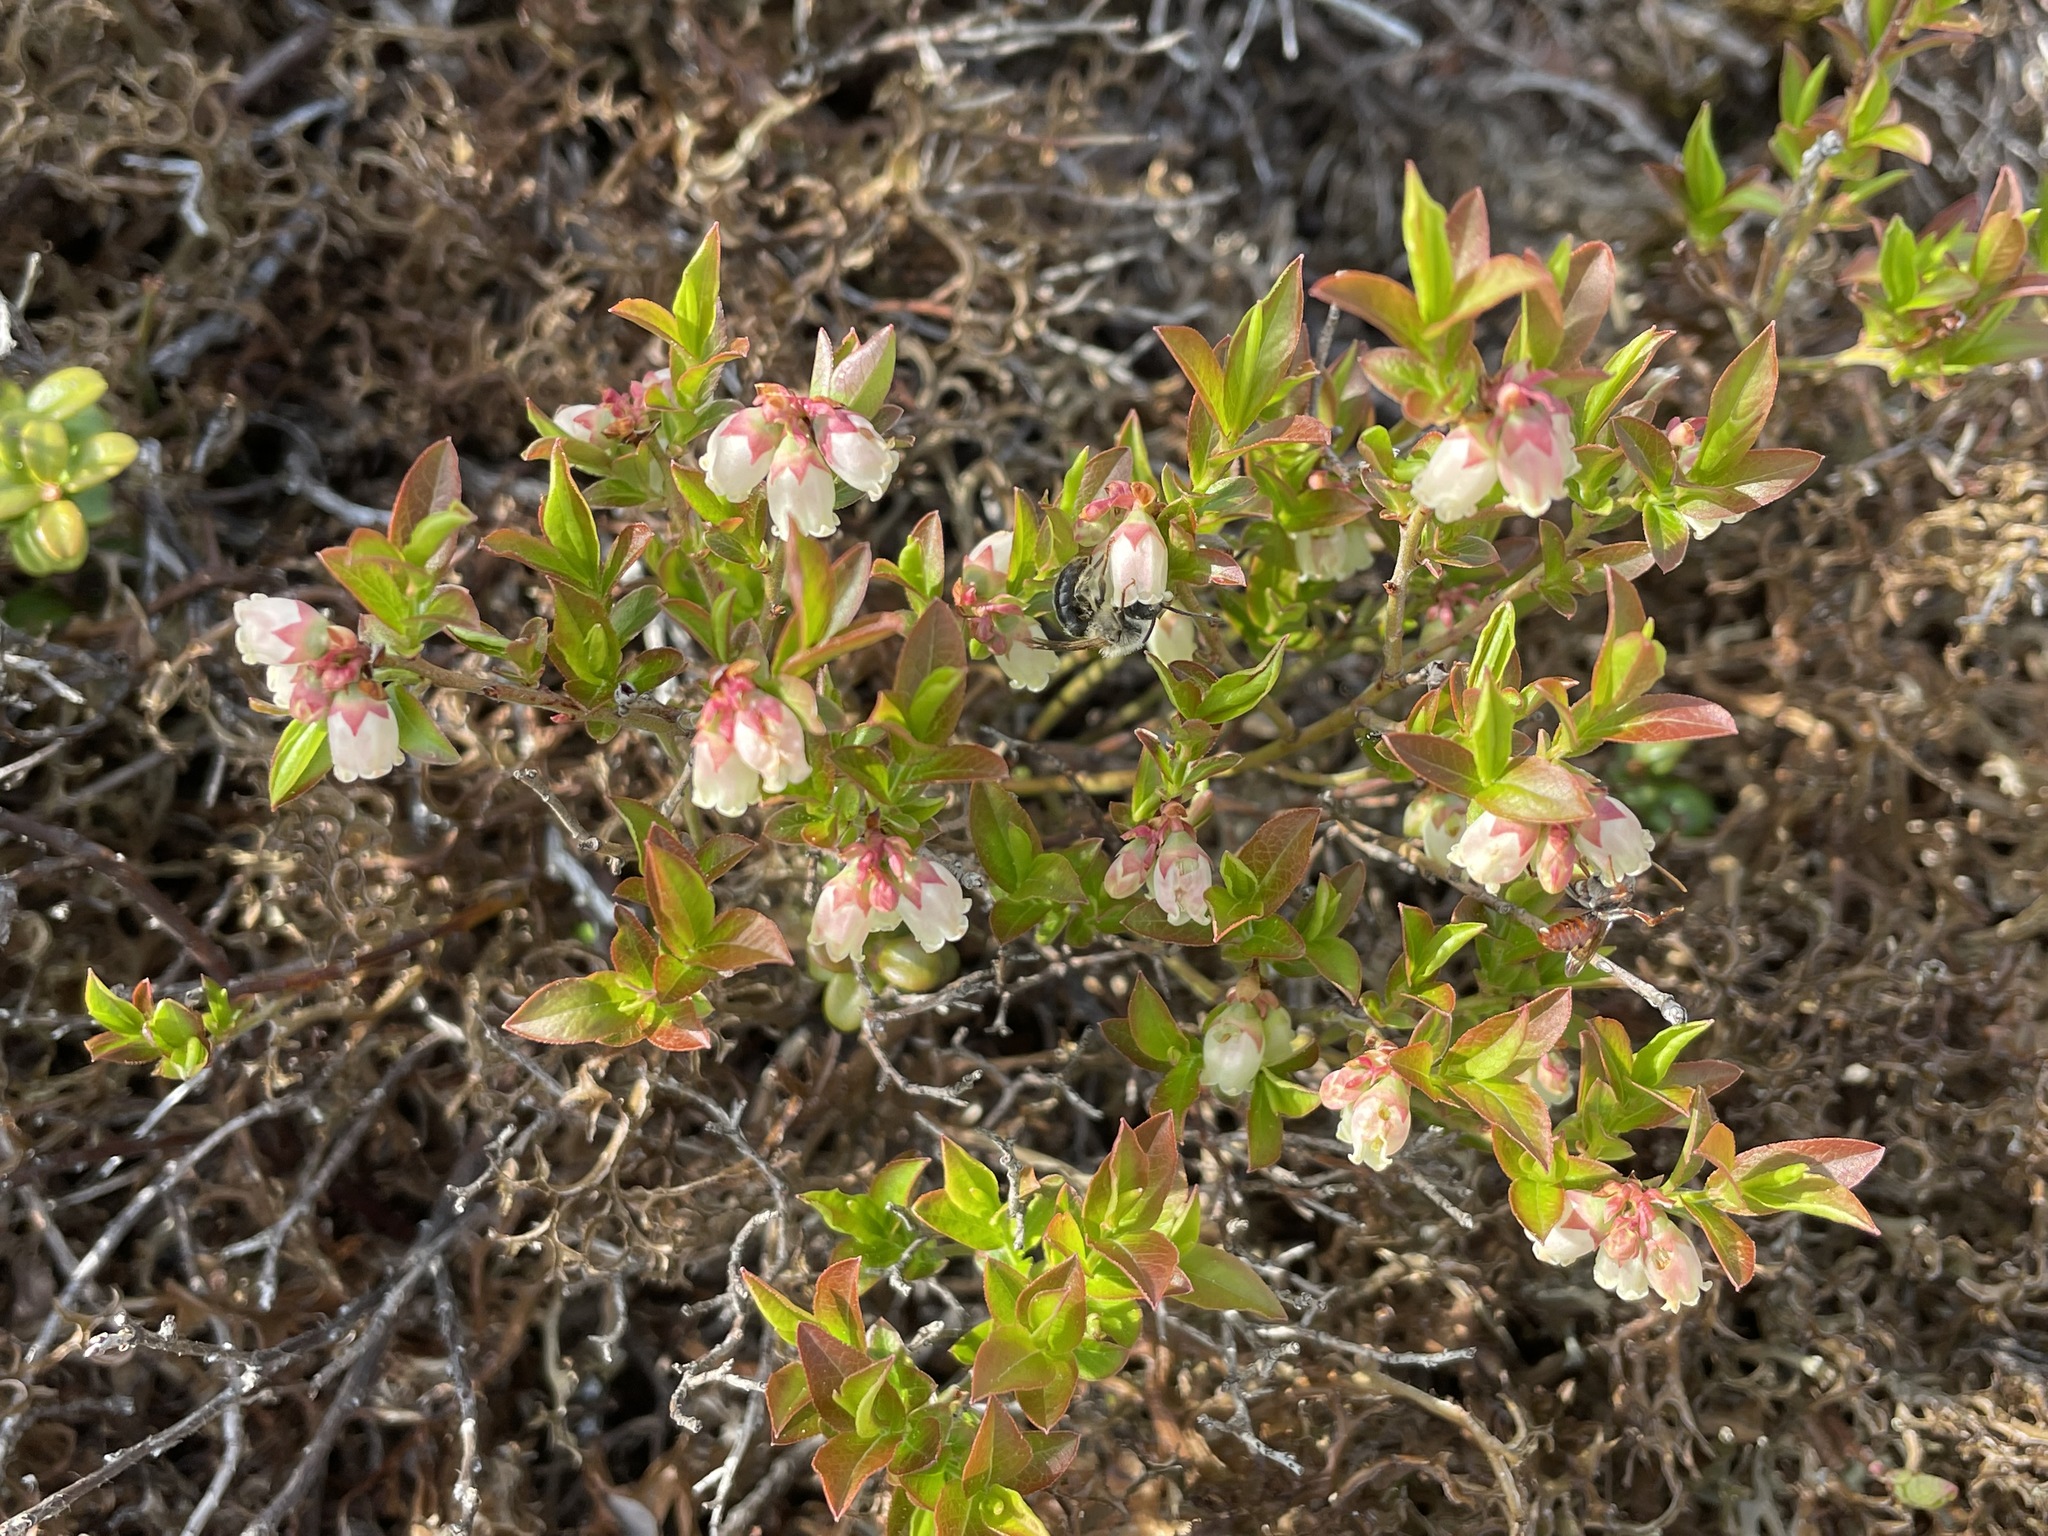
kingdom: Plantae
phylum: Tracheophyta
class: Magnoliopsida
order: Ericales
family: Ericaceae
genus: Vaccinium
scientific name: Vaccinium angustifolium
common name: Early lowbush blueberry
